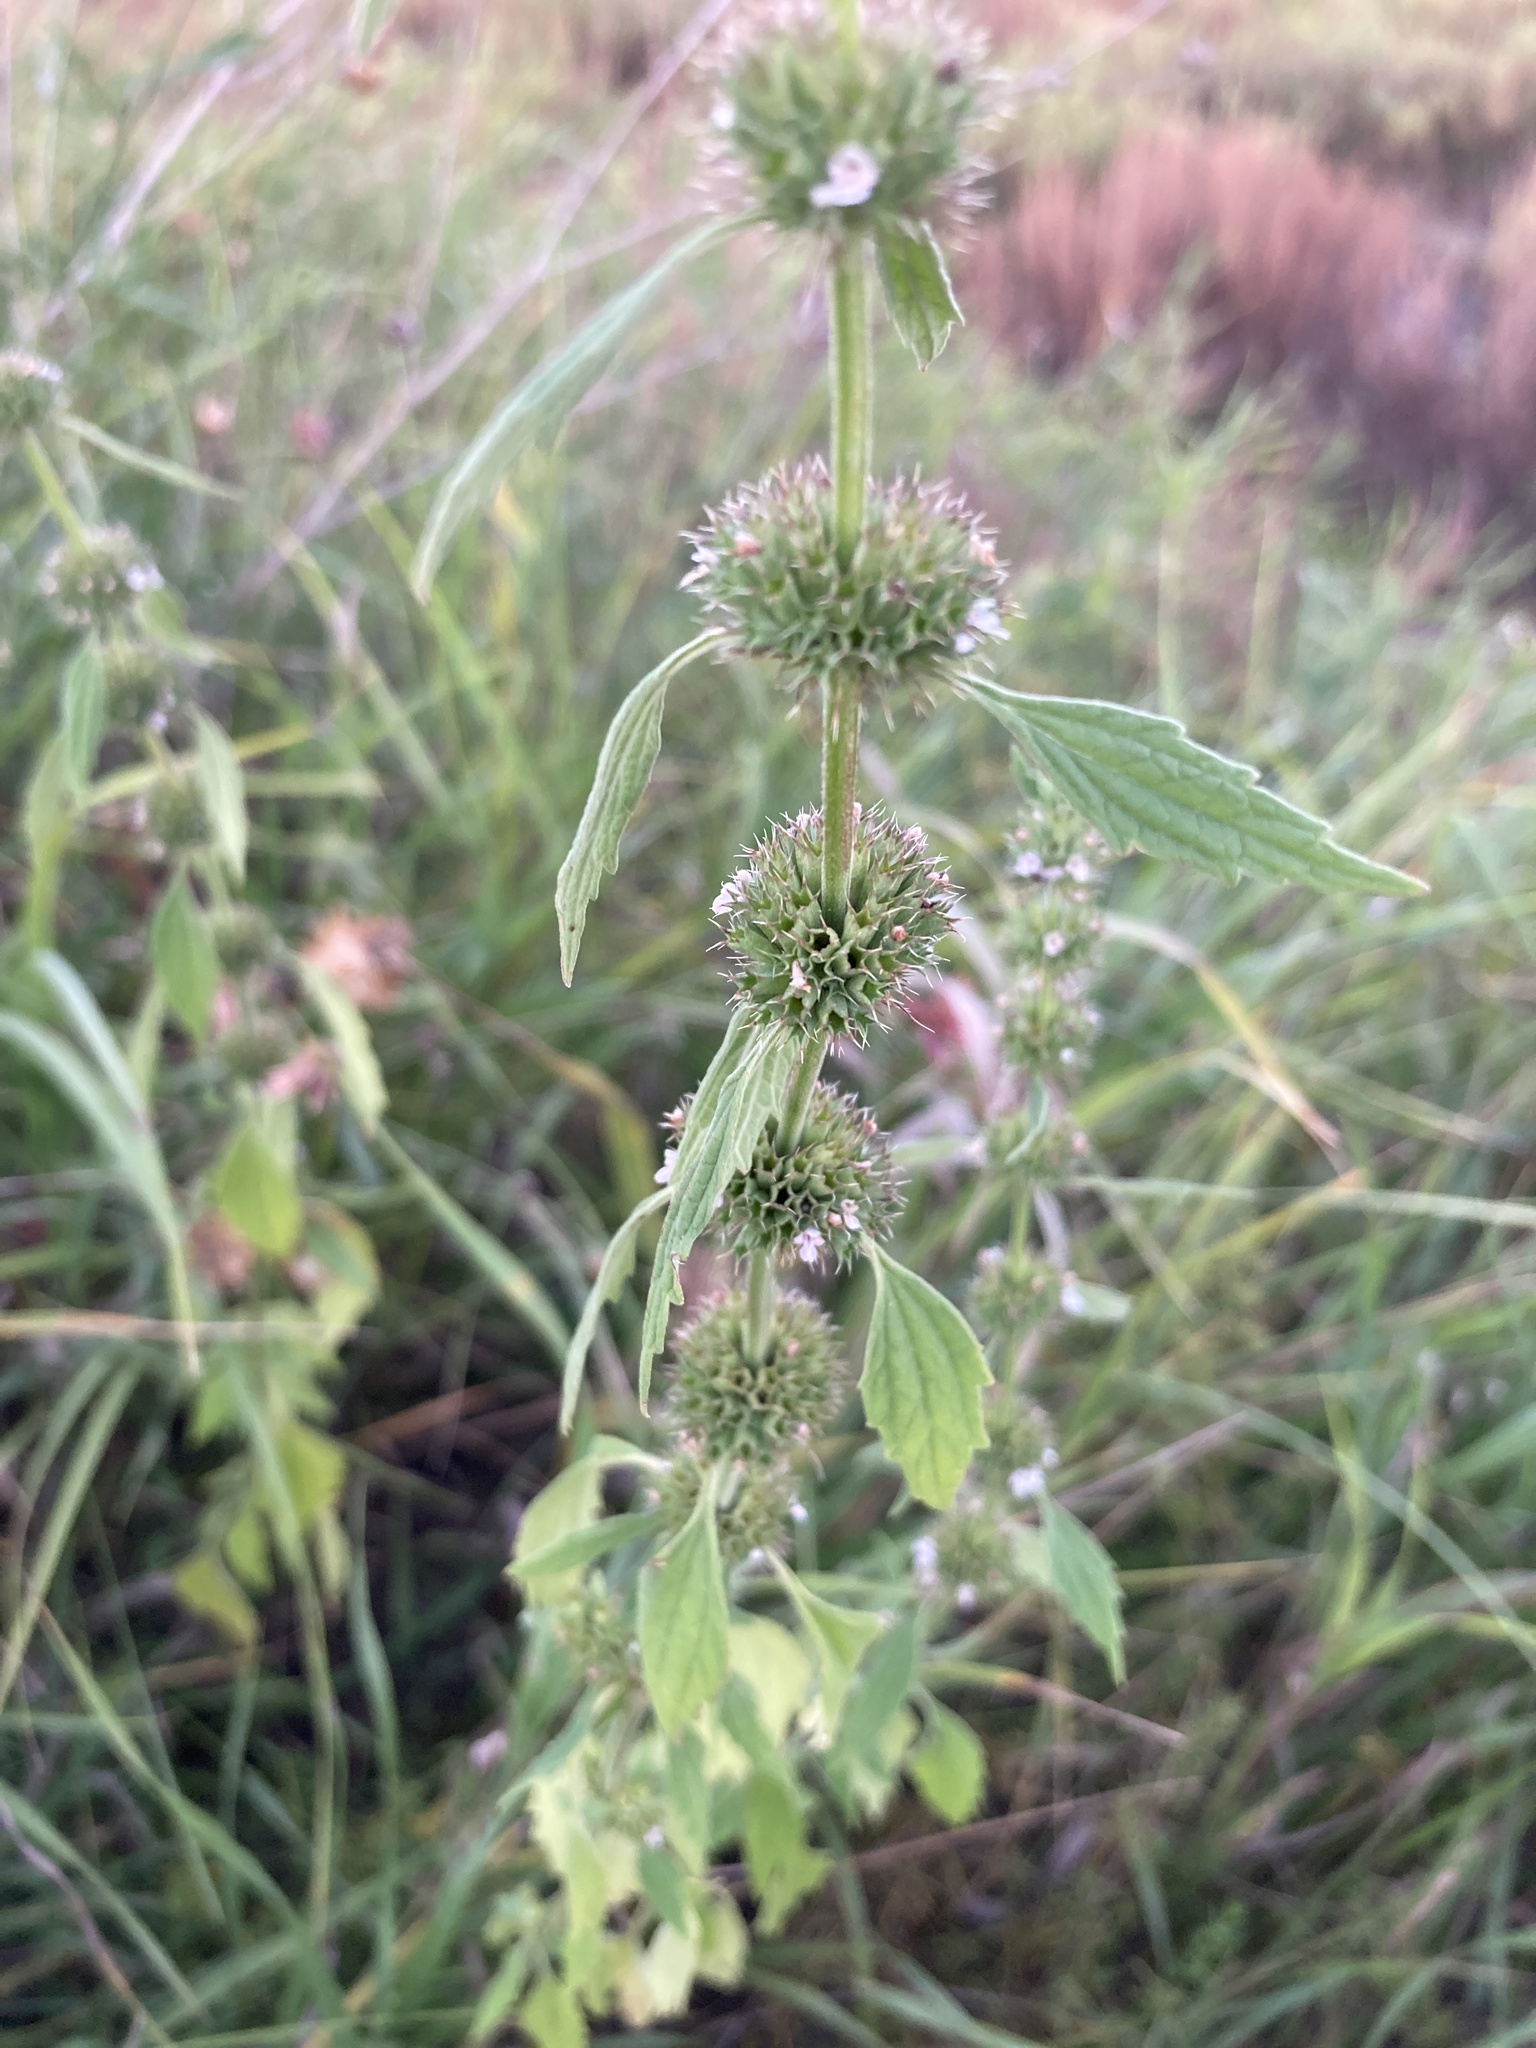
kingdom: Plantae
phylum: Tracheophyta
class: Magnoliopsida
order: Lamiales
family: Lamiaceae
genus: Chaiturus
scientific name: Chaiturus marrubiastrum
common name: Lion's tail
